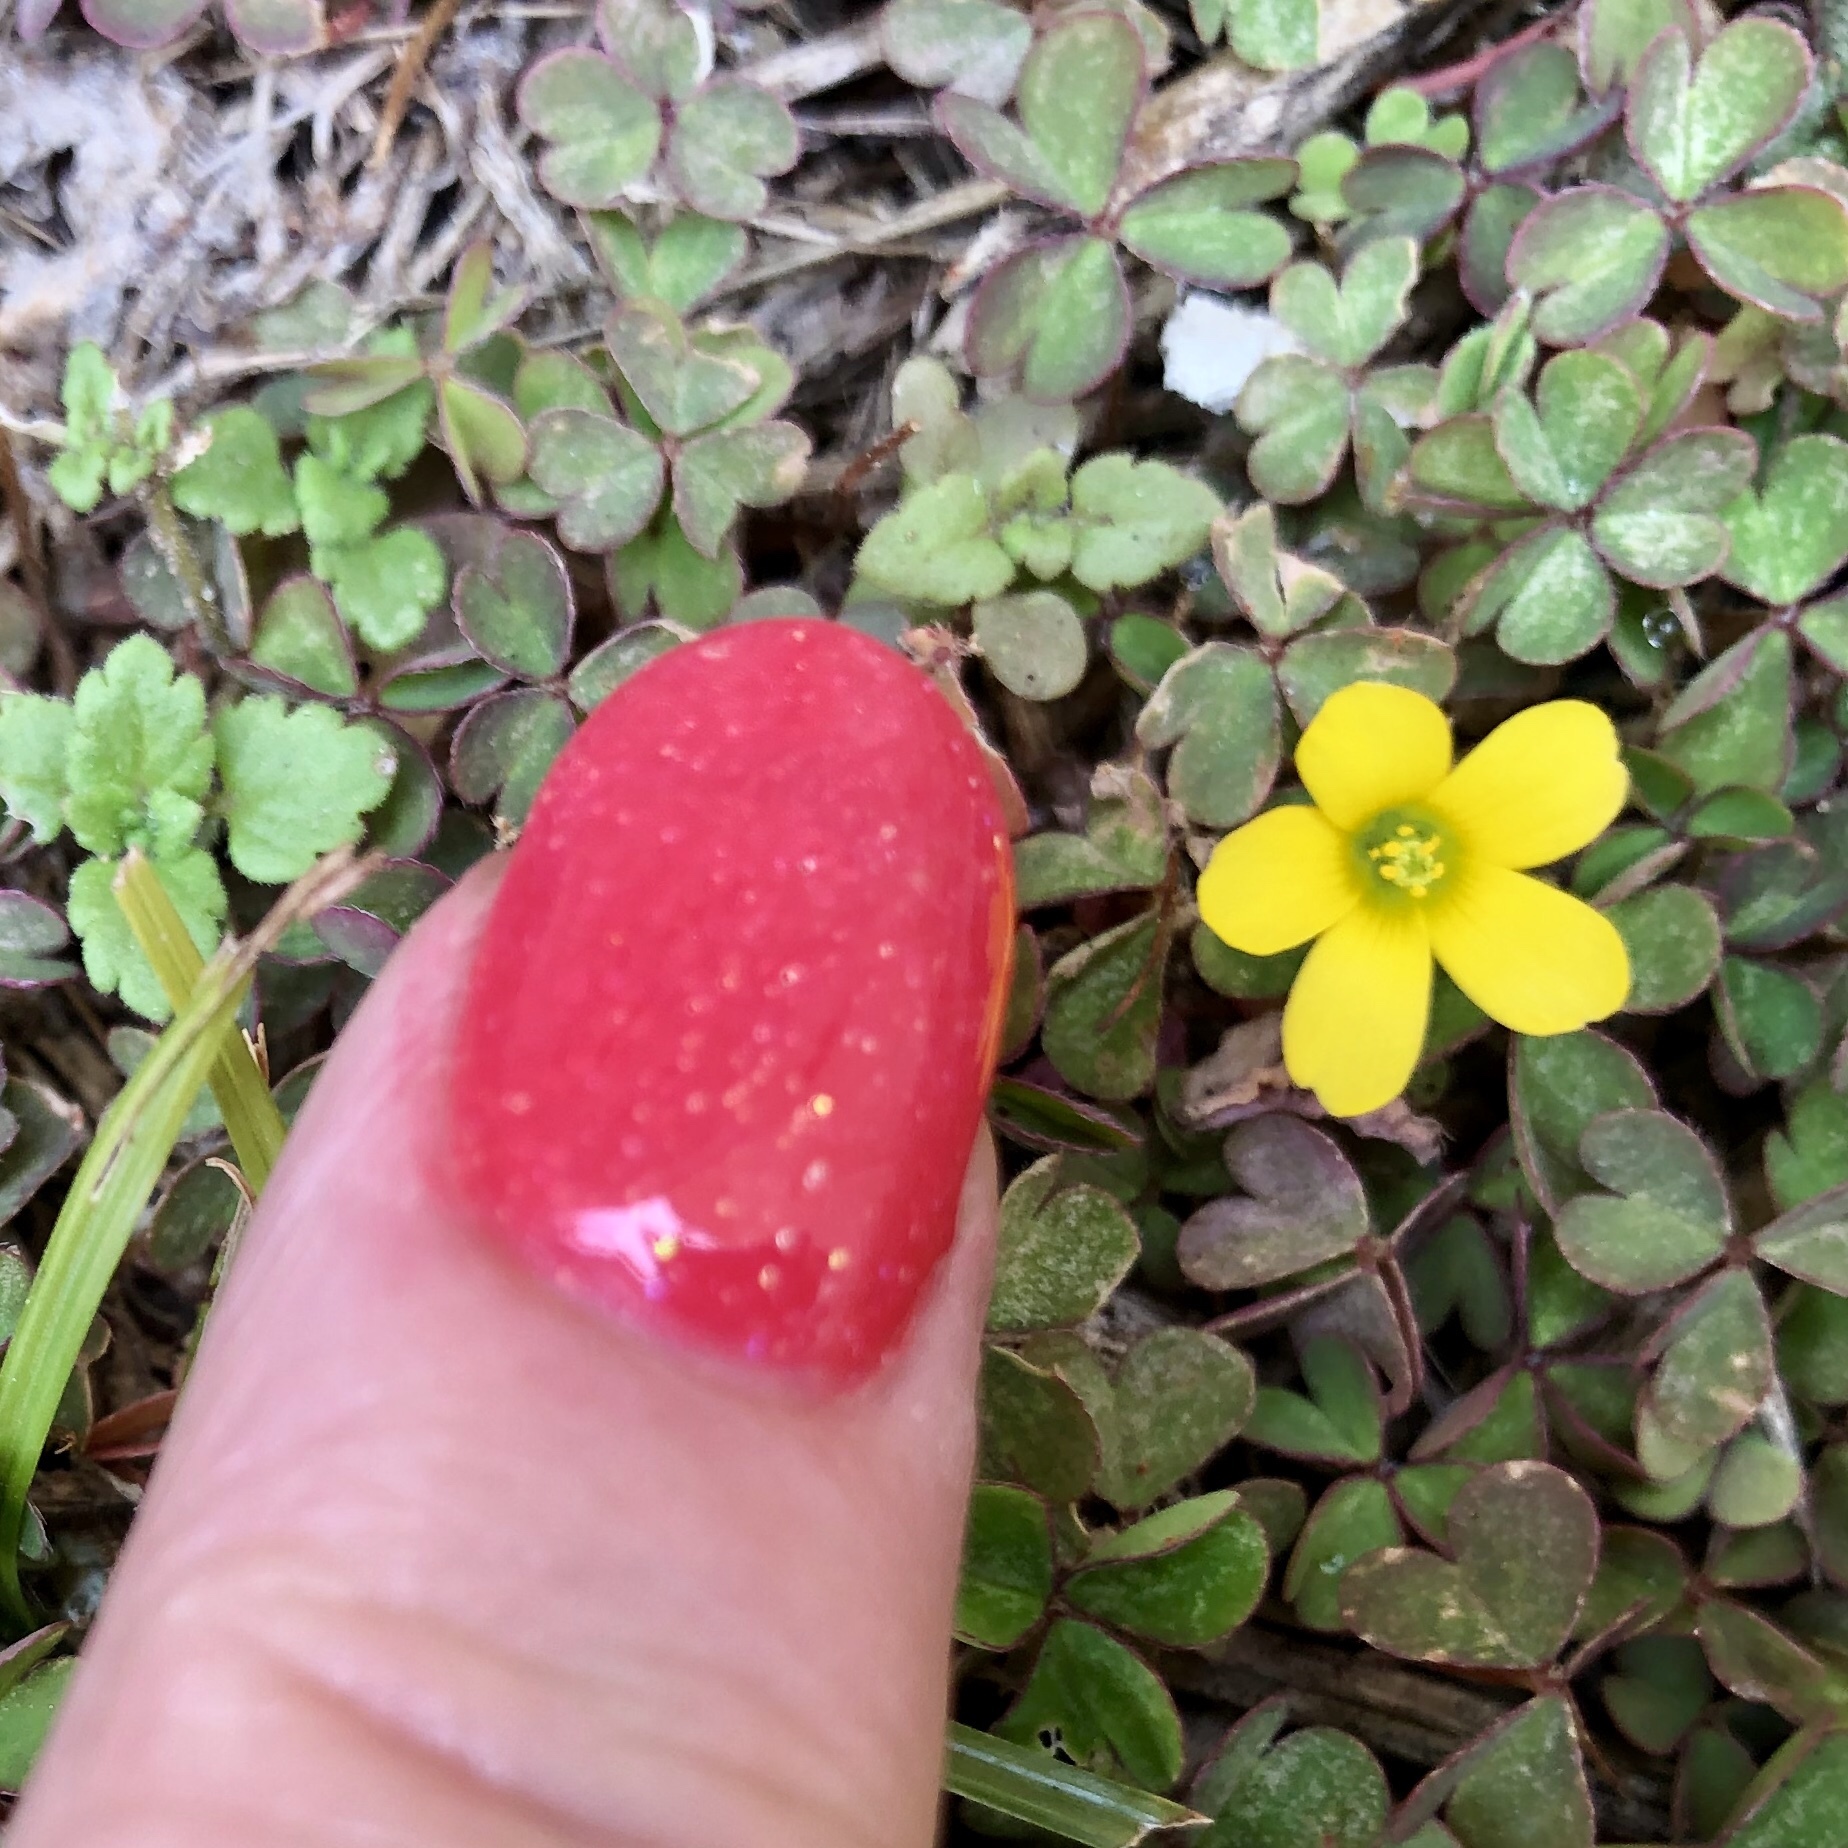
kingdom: Plantae
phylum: Tracheophyta
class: Magnoliopsida
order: Oxalidales
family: Oxalidaceae
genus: Oxalis
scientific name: Oxalis corniculata
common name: Procumbent yellow-sorrel
